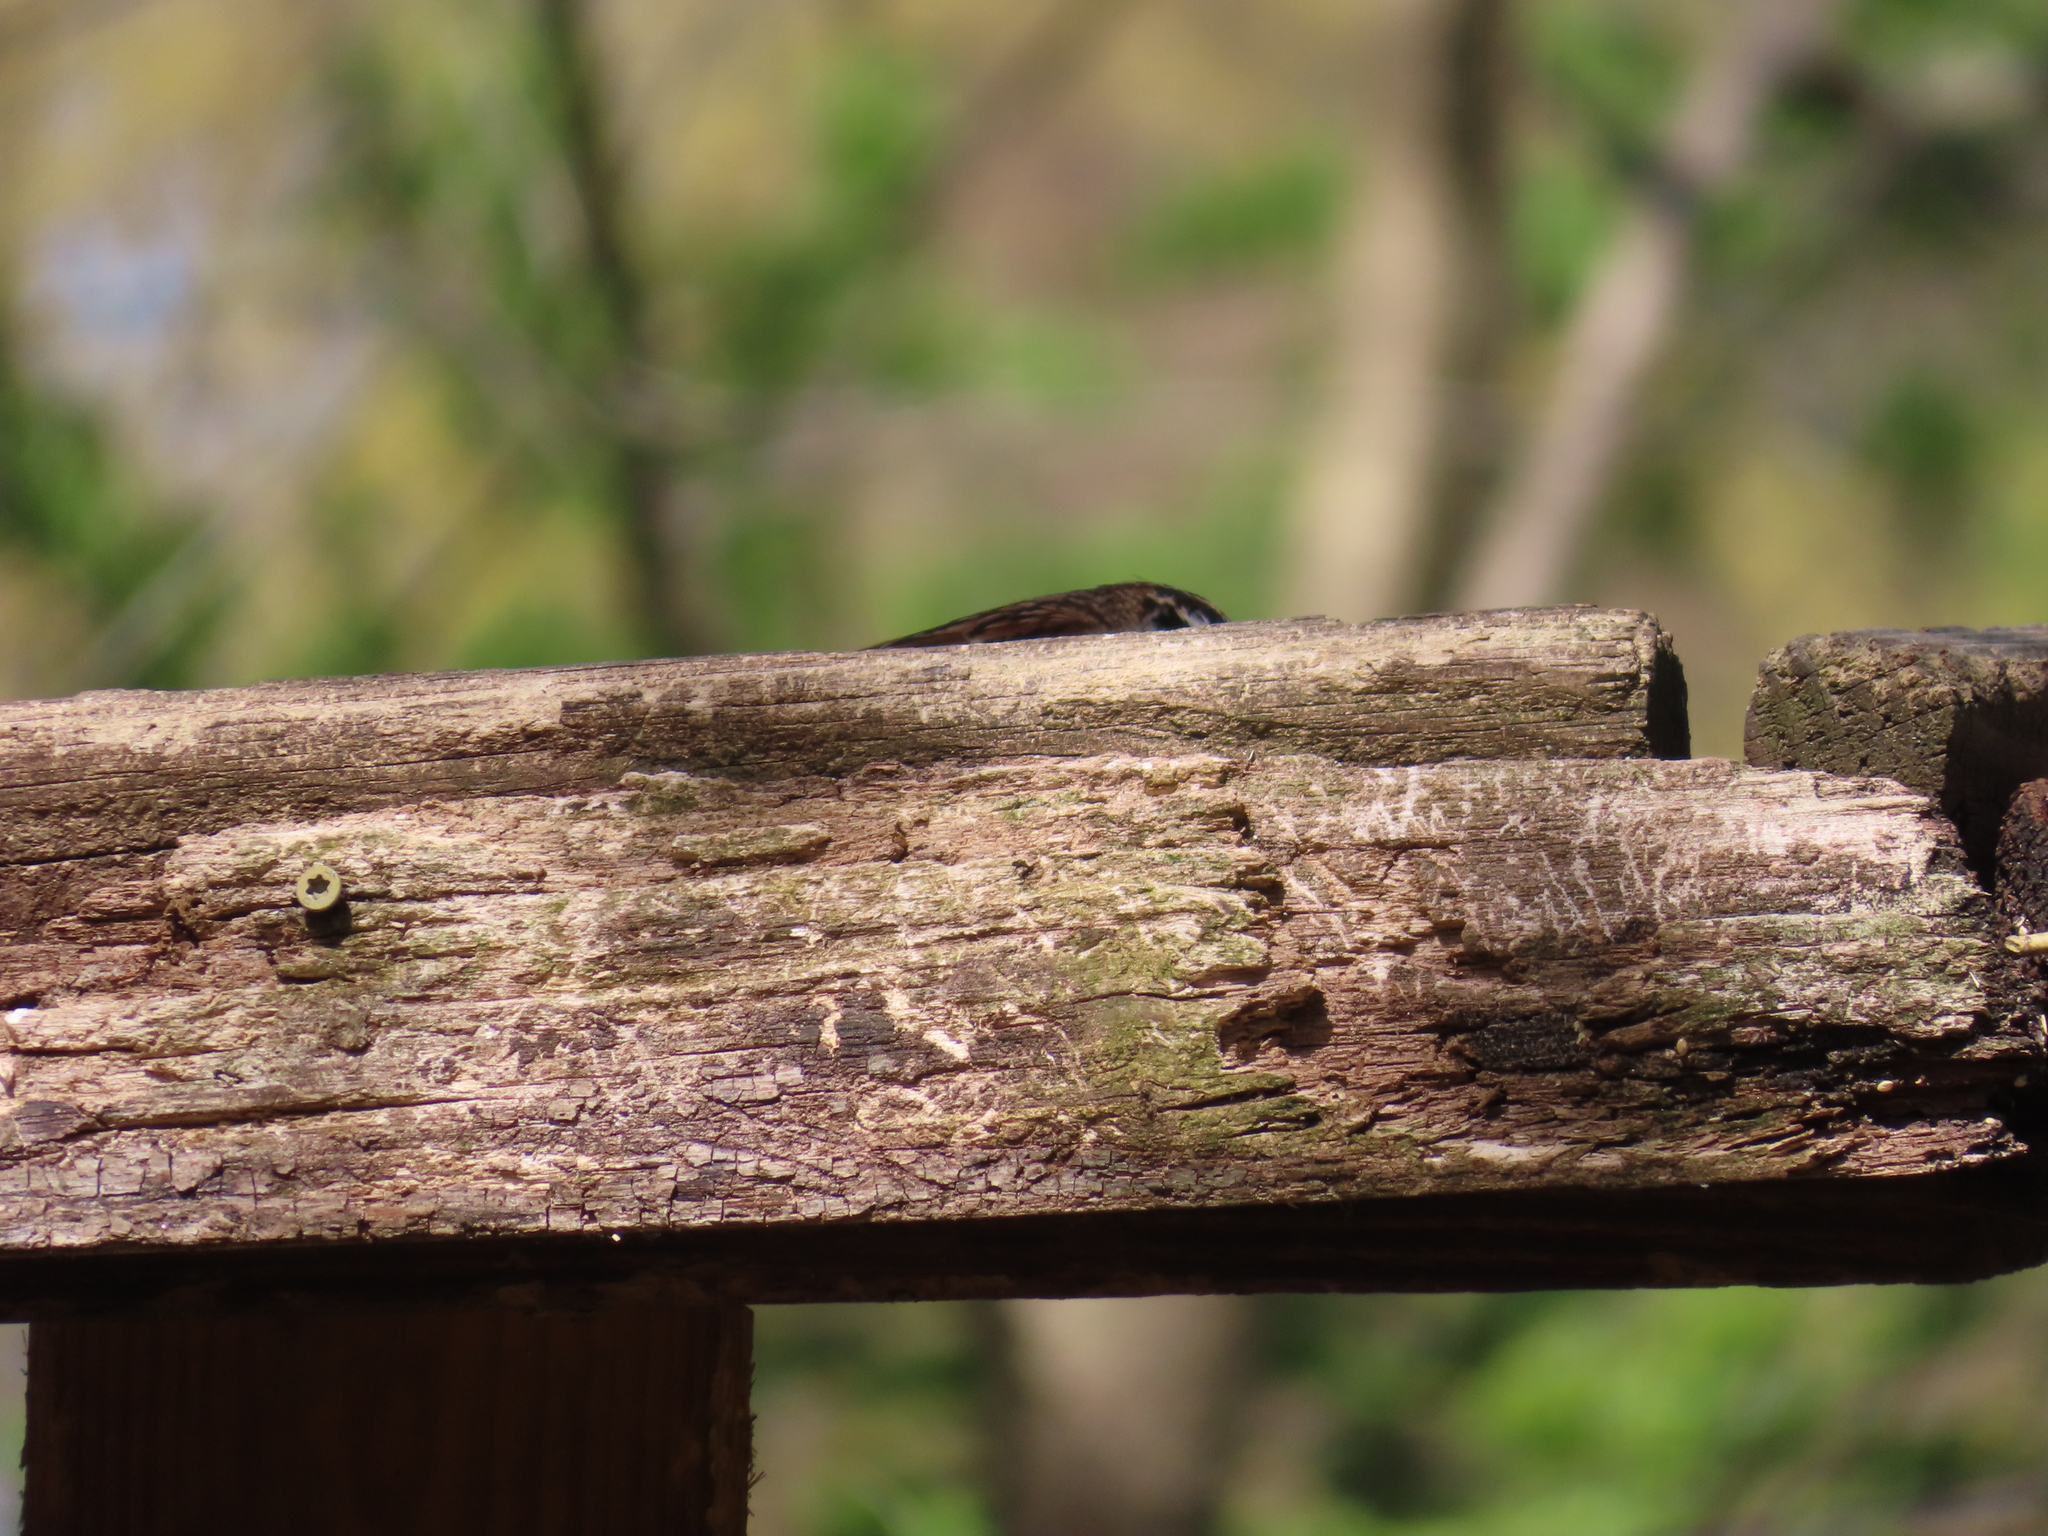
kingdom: Animalia
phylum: Chordata
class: Aves
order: Passeriformes
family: Passerellidae
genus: Zonotrichia
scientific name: Zonotrichia albicollis
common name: White-throated sparrow
